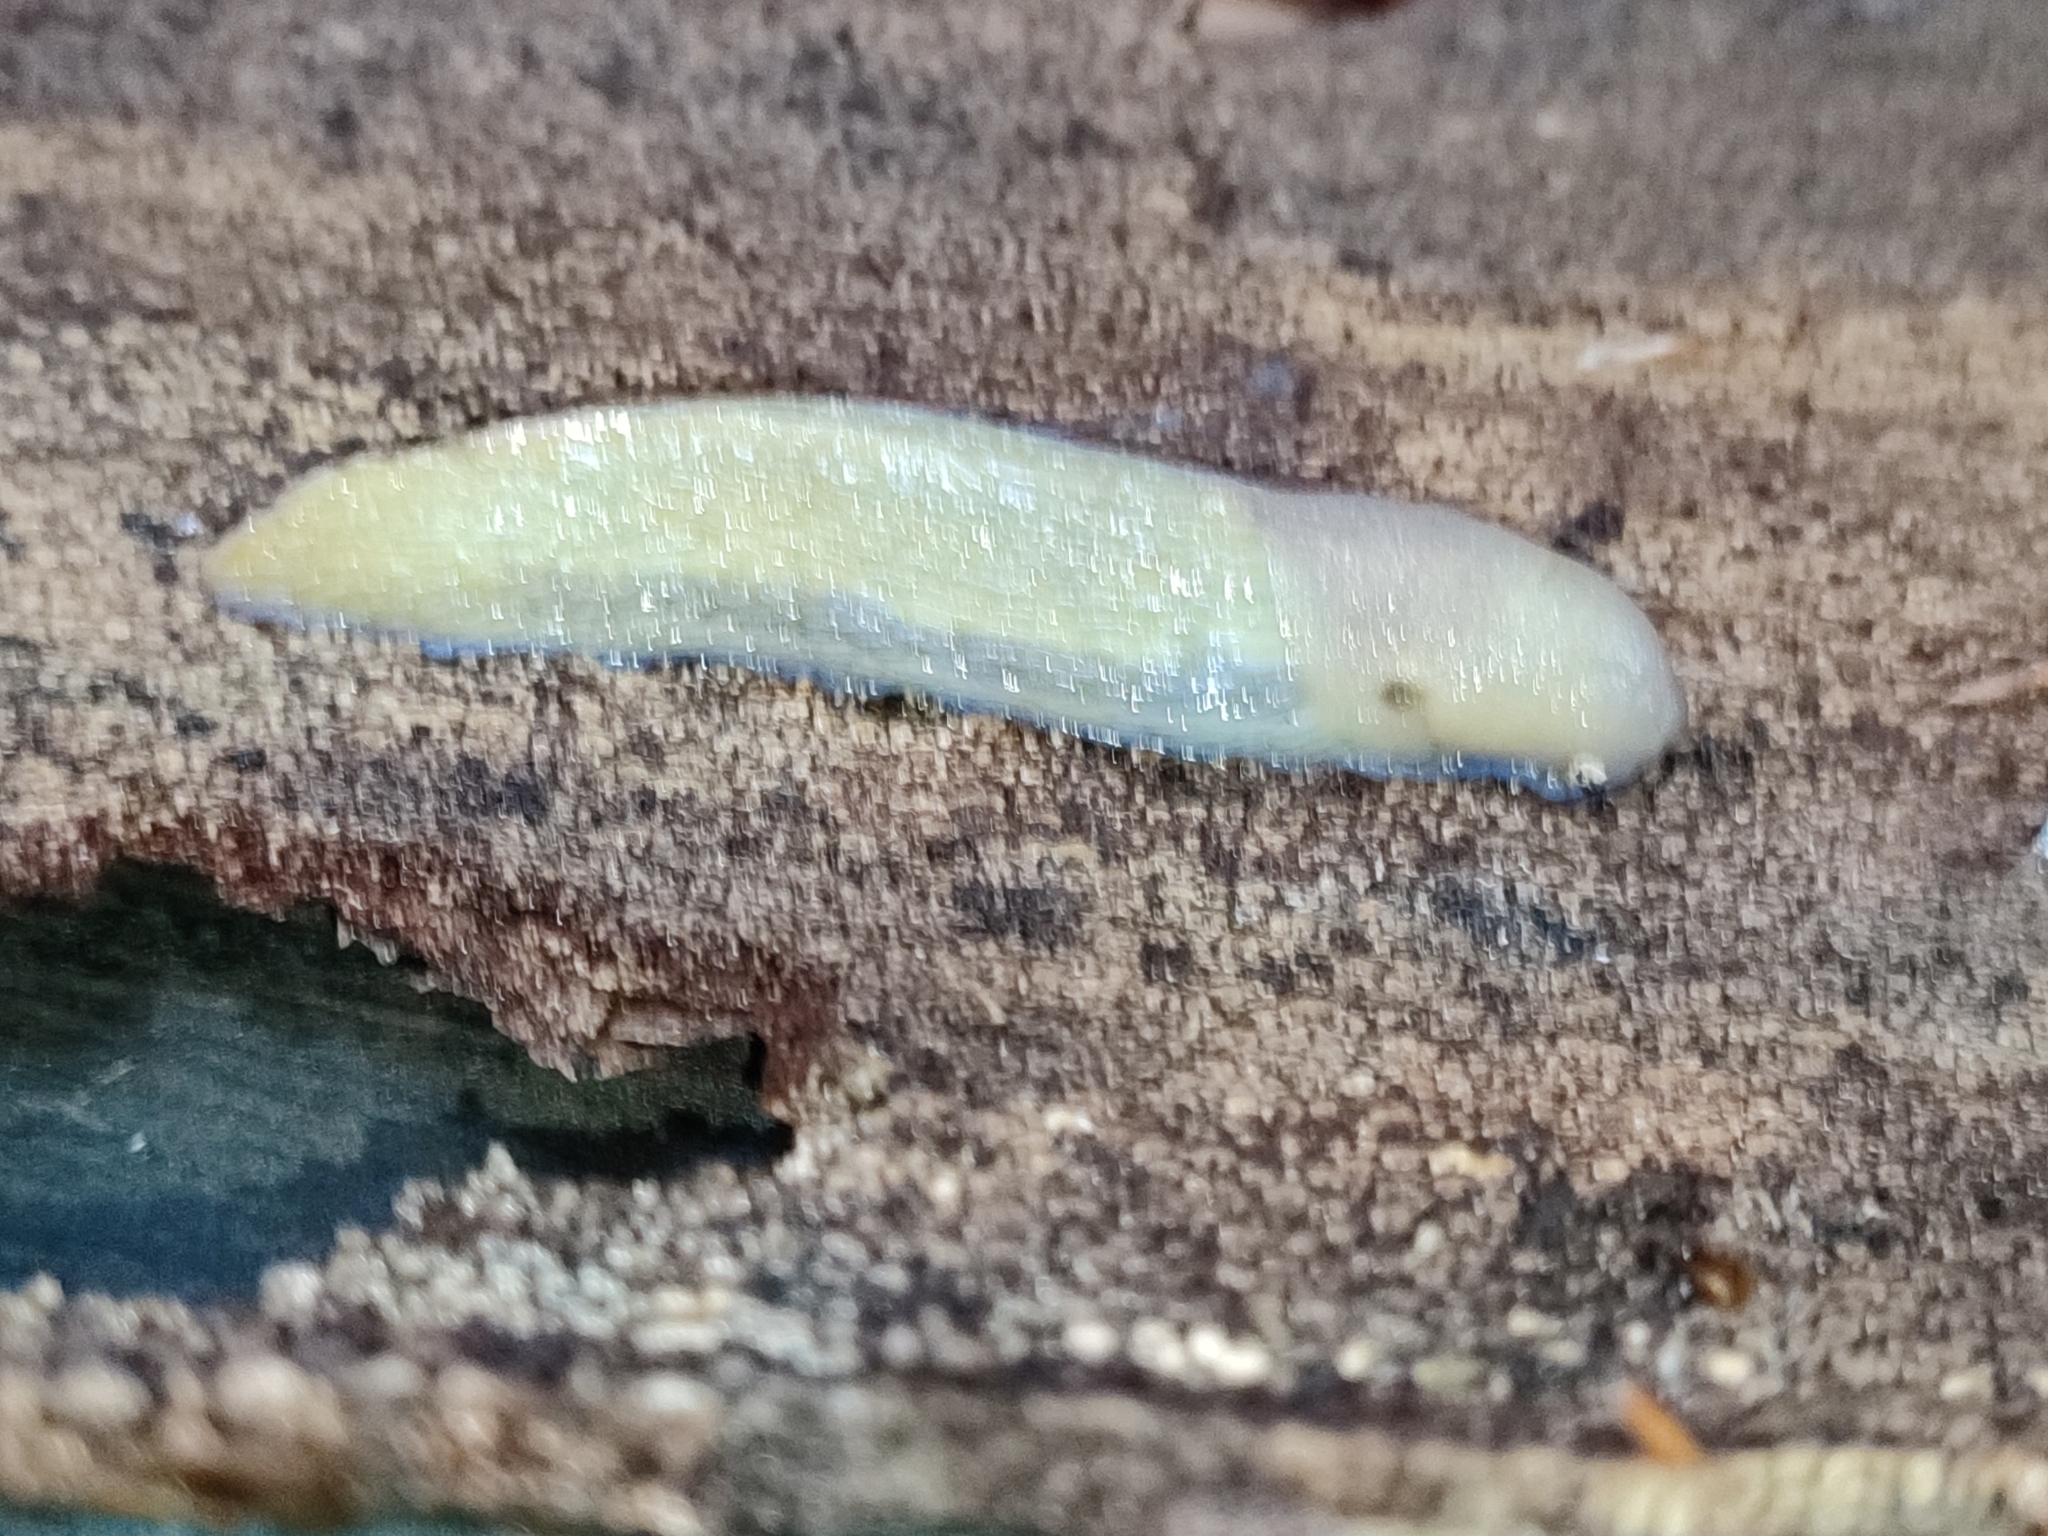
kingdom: Animalia
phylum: Mollusca
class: Gastropoda
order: Stylommatophora
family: Limacidae
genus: Bielzia
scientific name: Bielzia coerulans
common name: Carpathian blue slug
